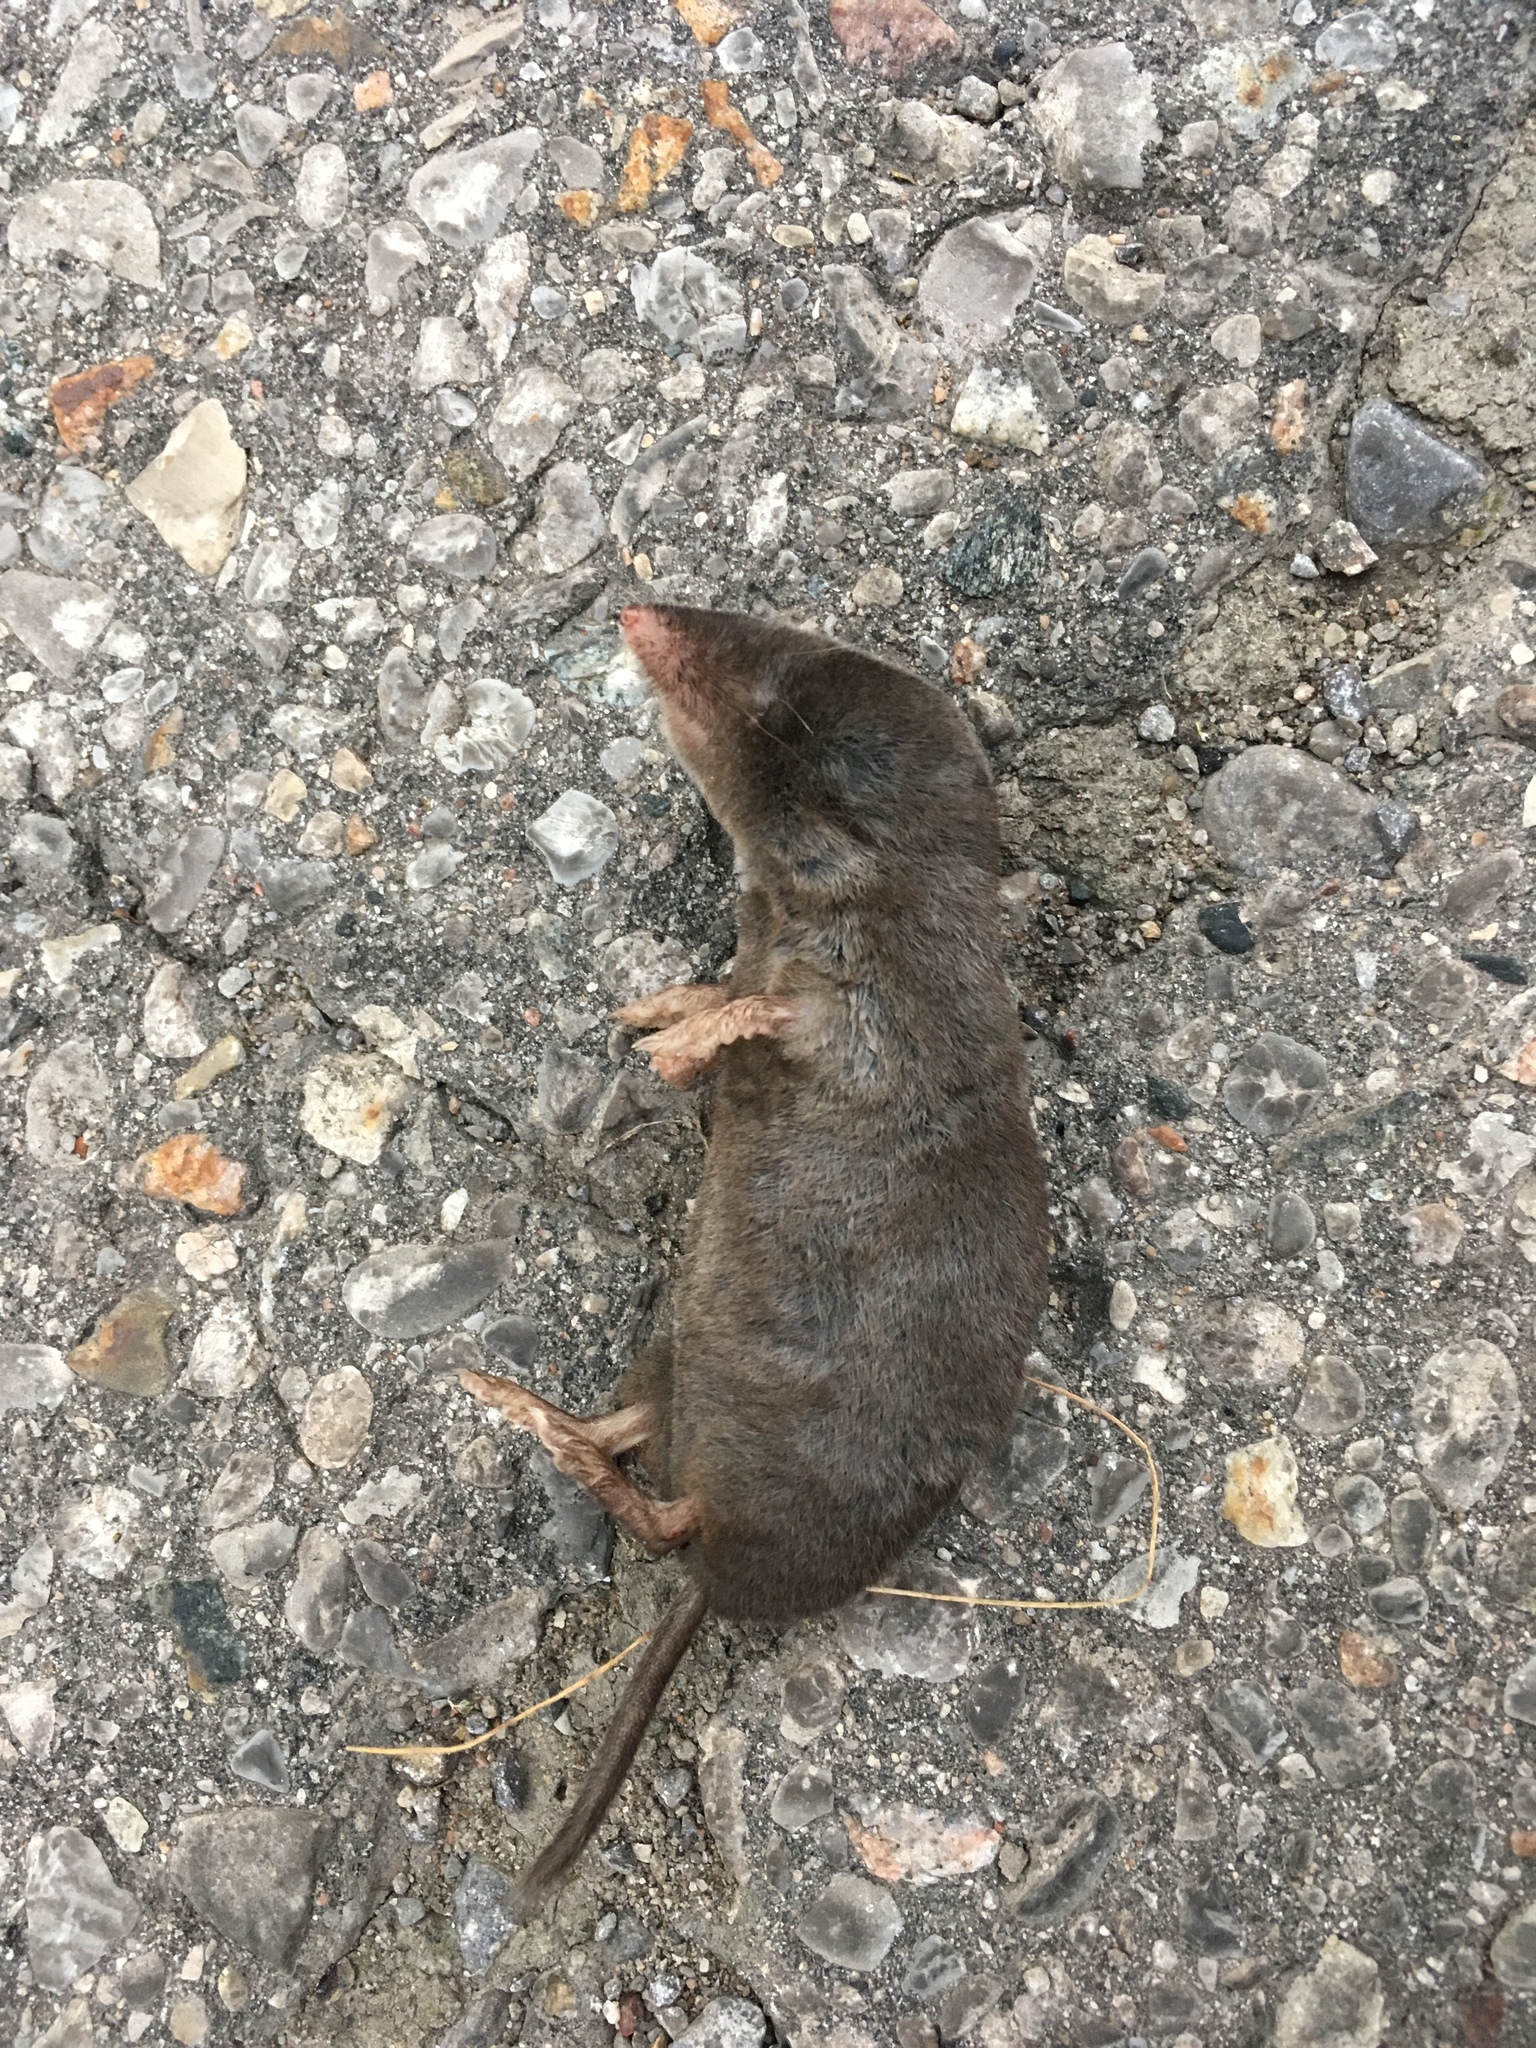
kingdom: Animalia
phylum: Chordata
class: Mammalia
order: Soricomorpha
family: Soricidae
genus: Blarina
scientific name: Blarina brevicauda
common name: Northern short-tailed shrew
